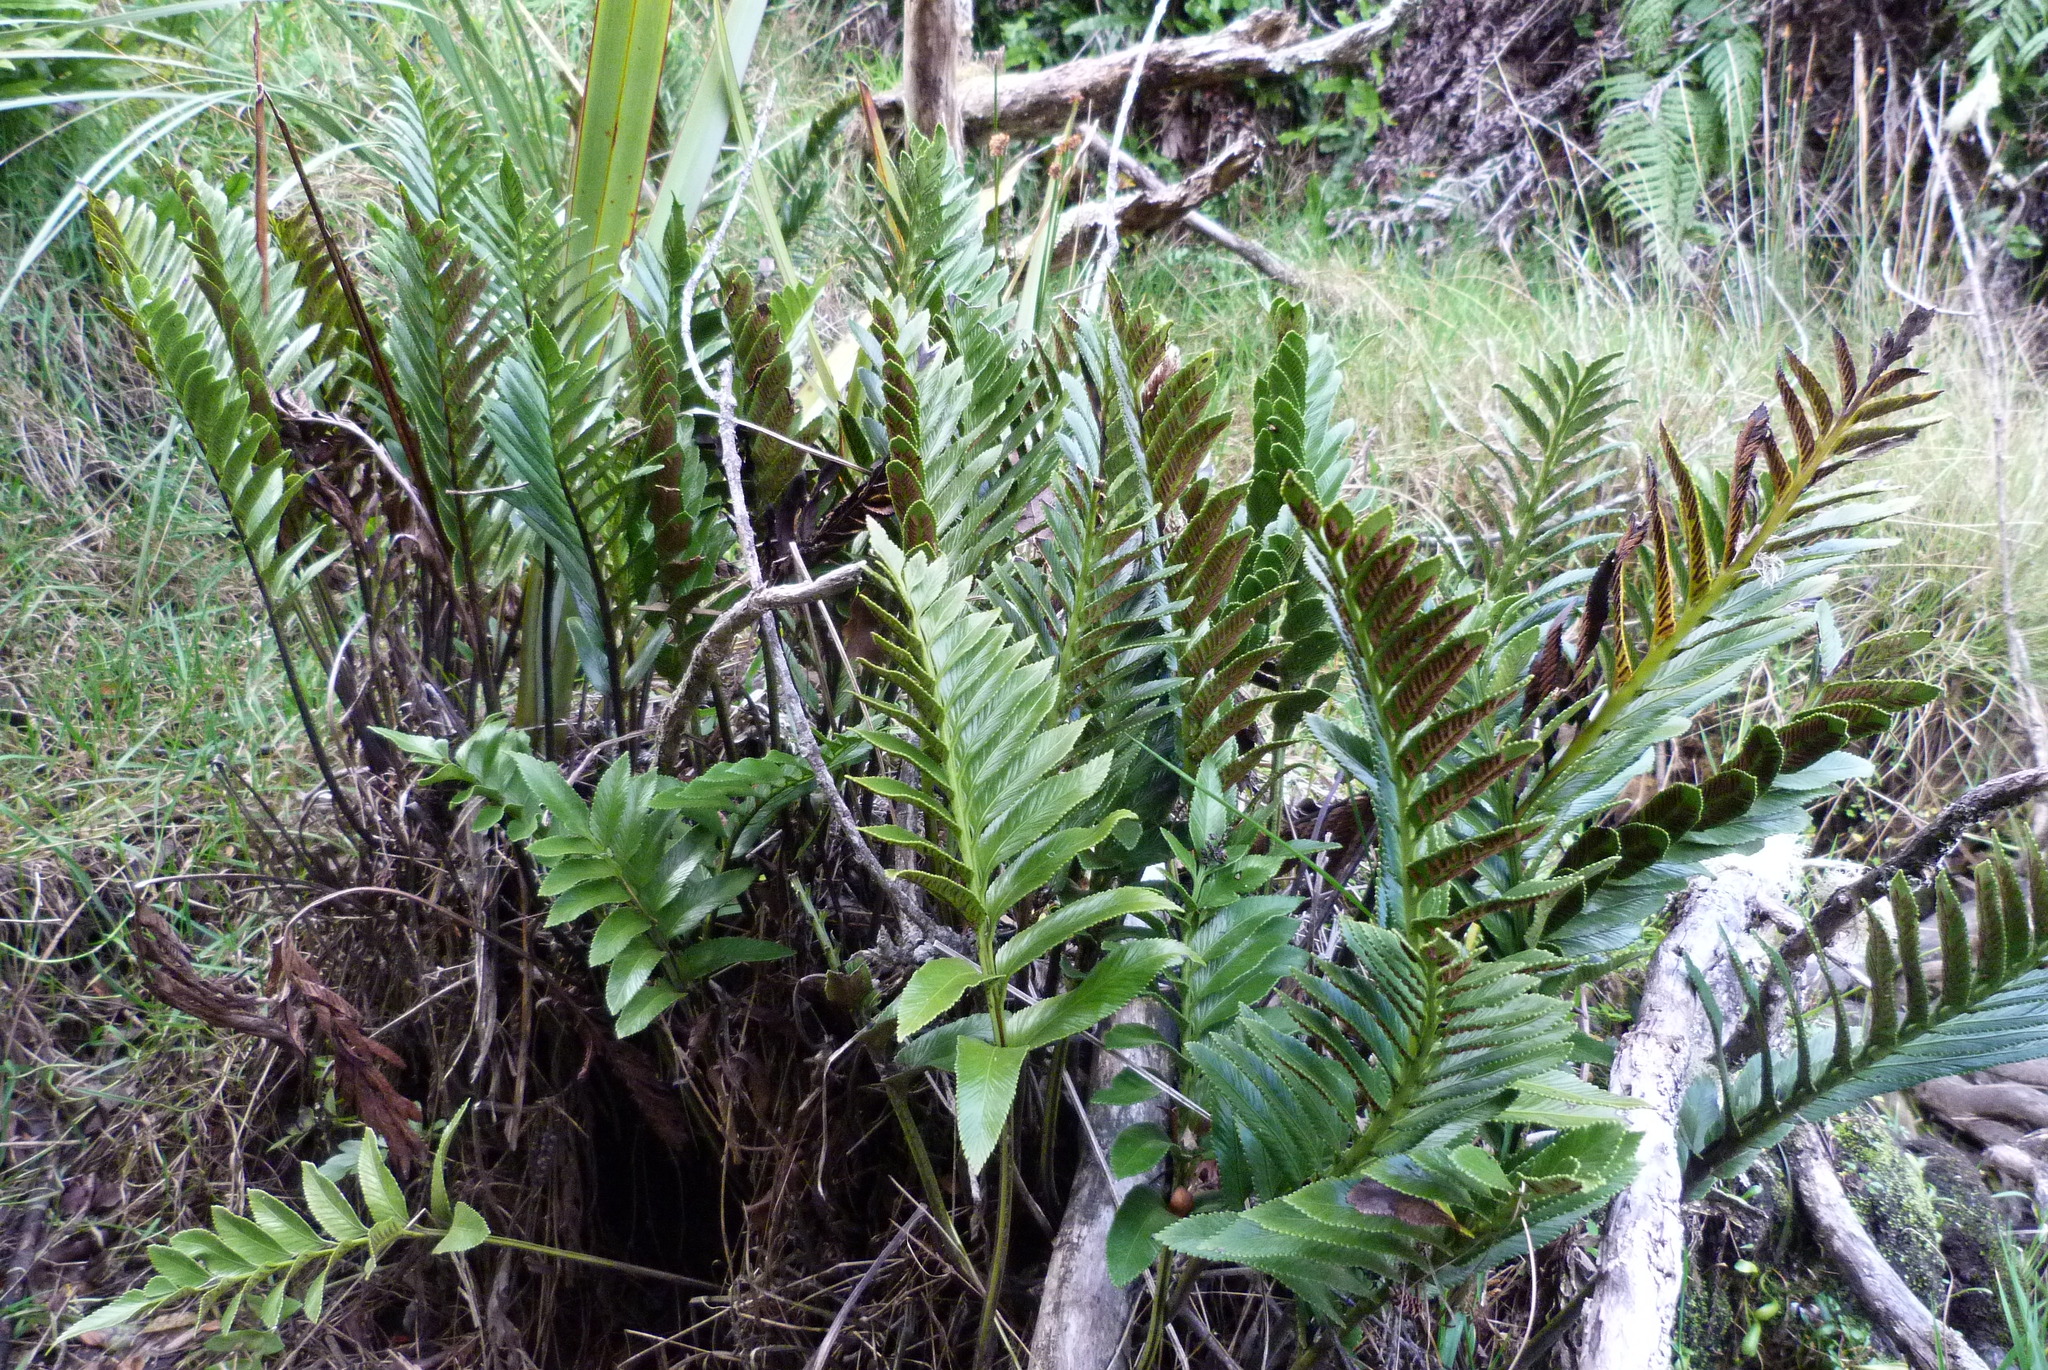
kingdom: Plantae
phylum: Tracheophyta
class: Polypodiopsida
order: Polypodiales
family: Aspleniaceae
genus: Asplenium
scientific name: Asplenium obtusatum
